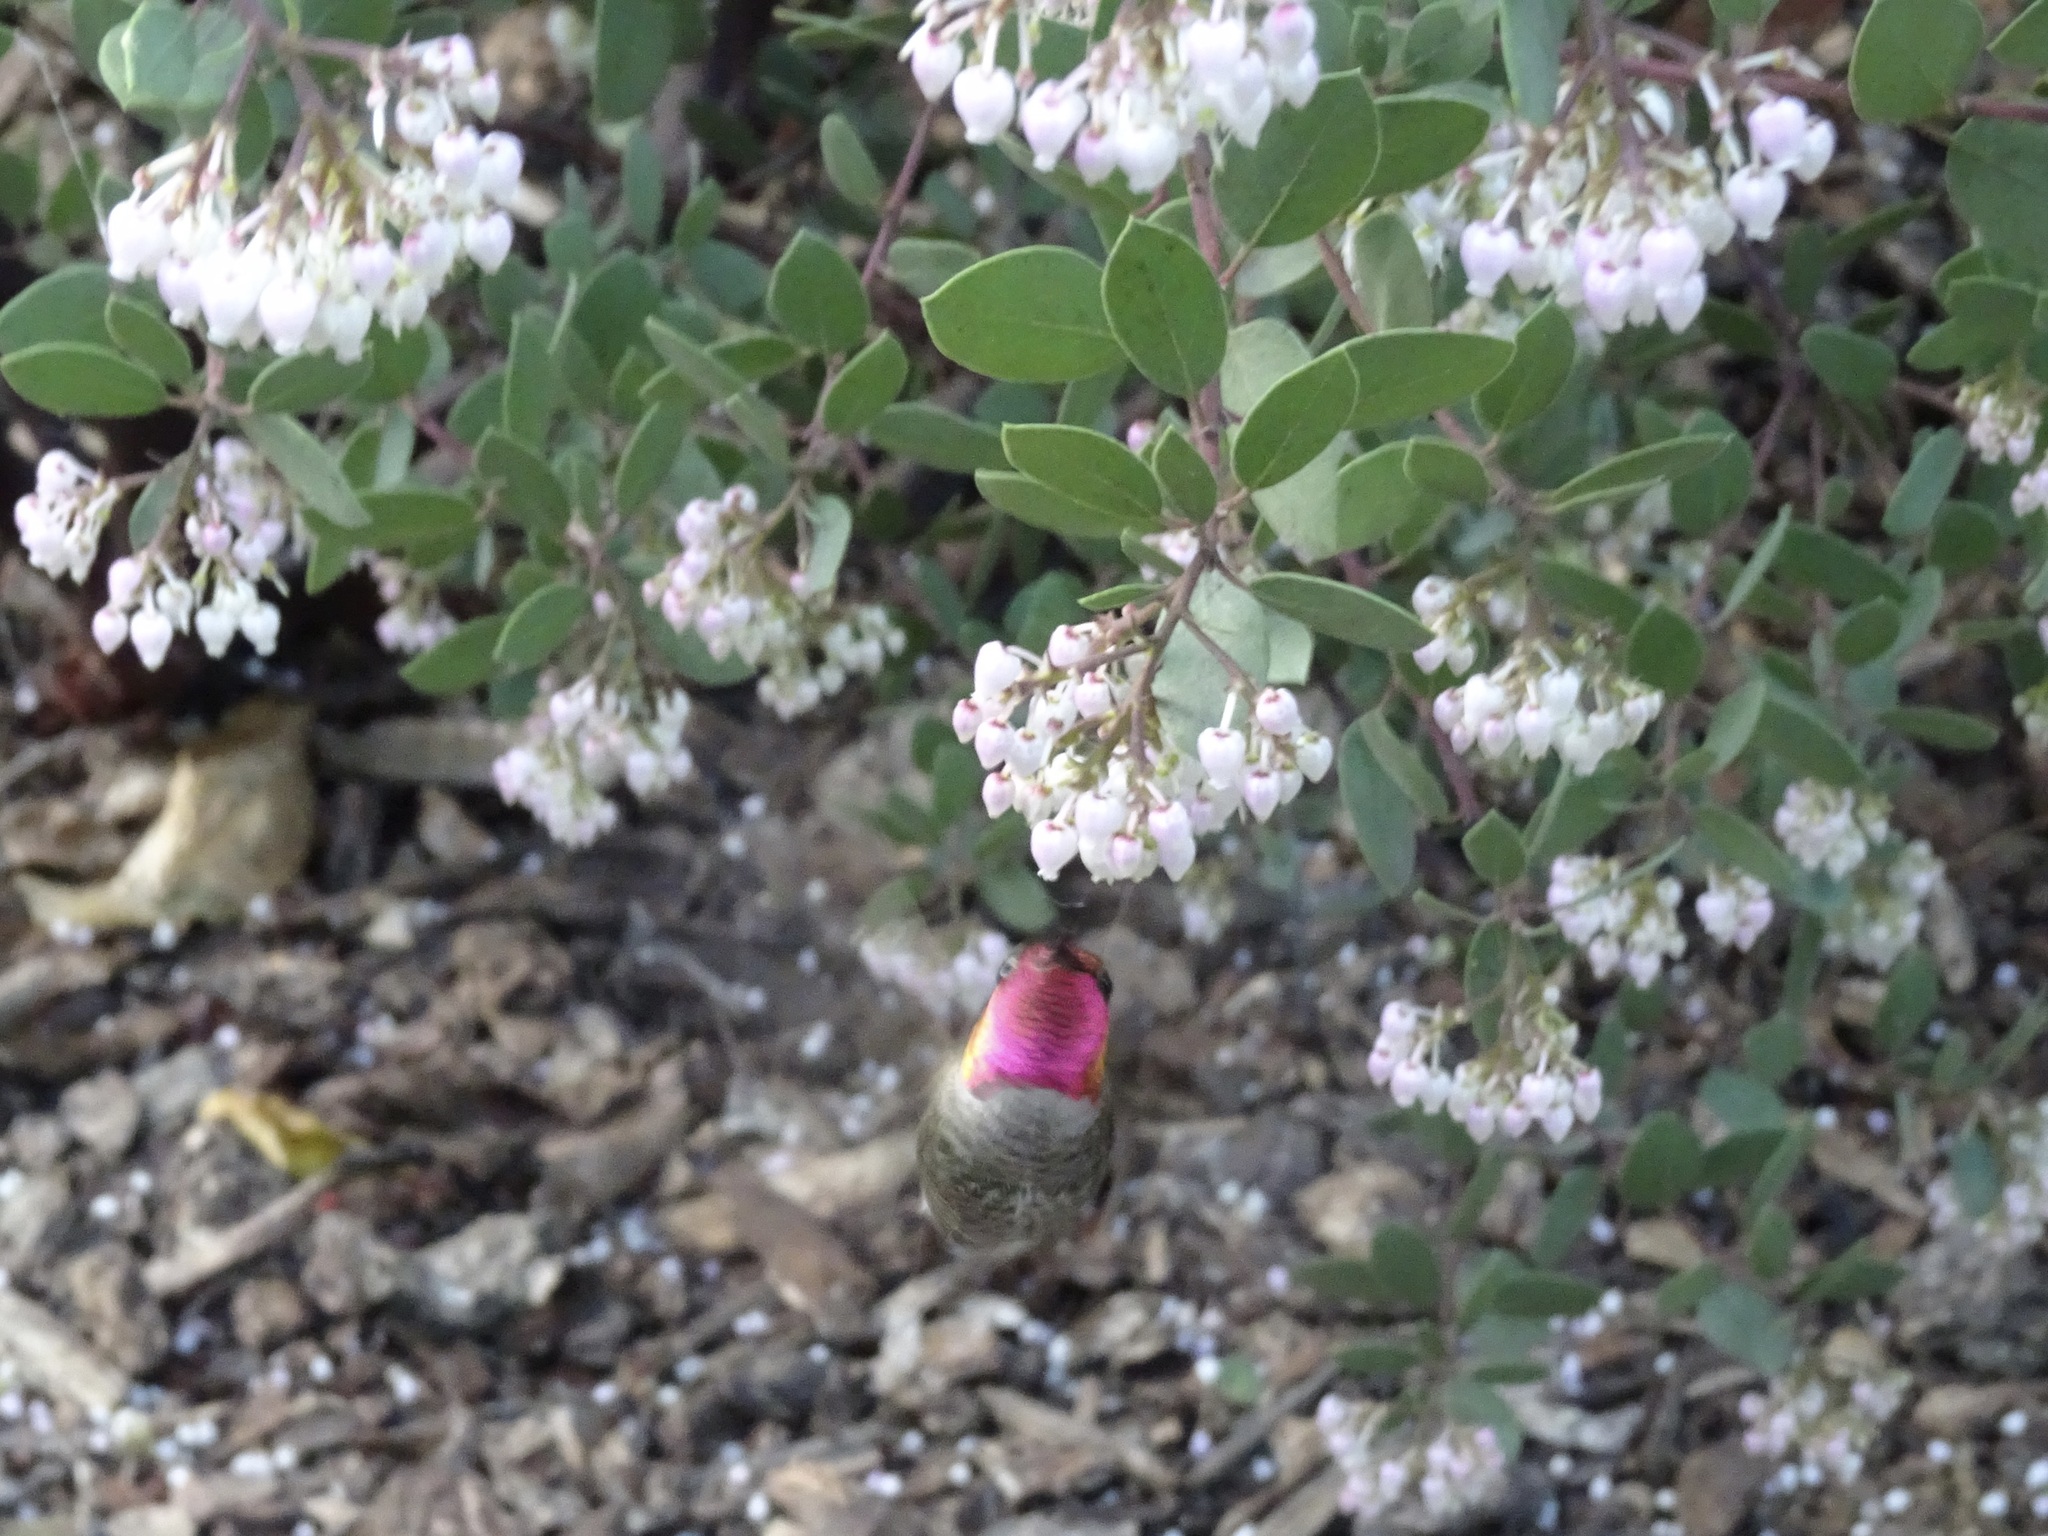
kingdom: Animalia
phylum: Chordata
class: Aves
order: Apodiformes
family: Trochilidae
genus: Calypte
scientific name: Calypte anna
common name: Anna's hummingbird
